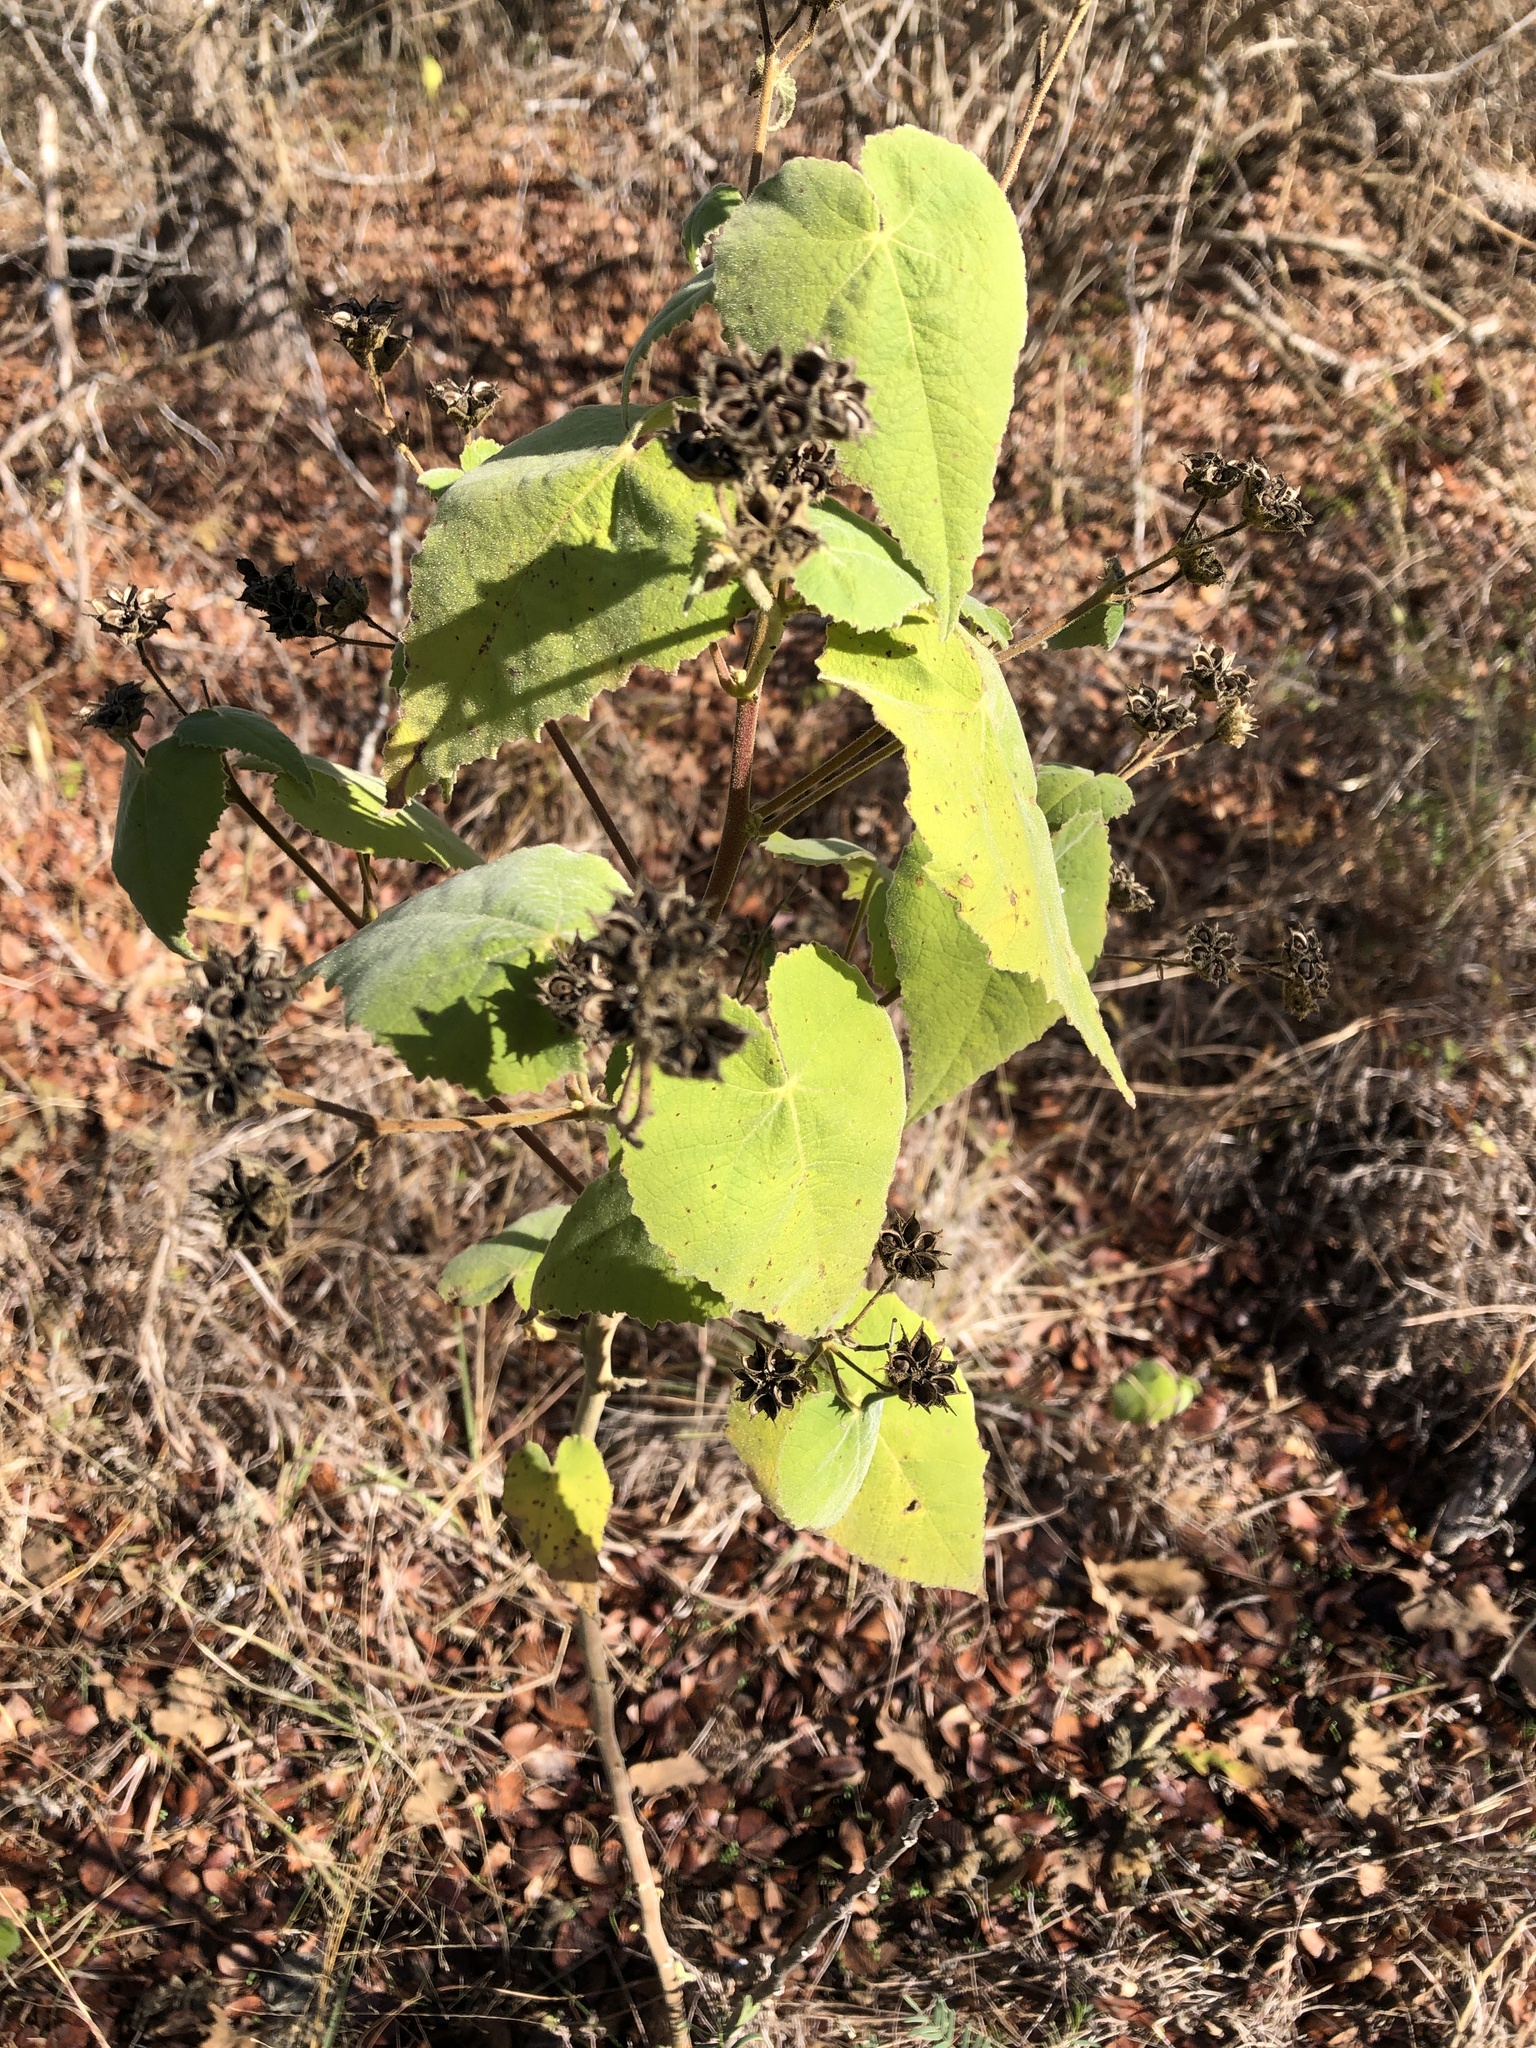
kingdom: Plantae
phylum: Tracheophyta
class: Magnoliopsida
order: Malvales
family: Malvaceae
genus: Allowissadula
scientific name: Allowissadula holosericea
